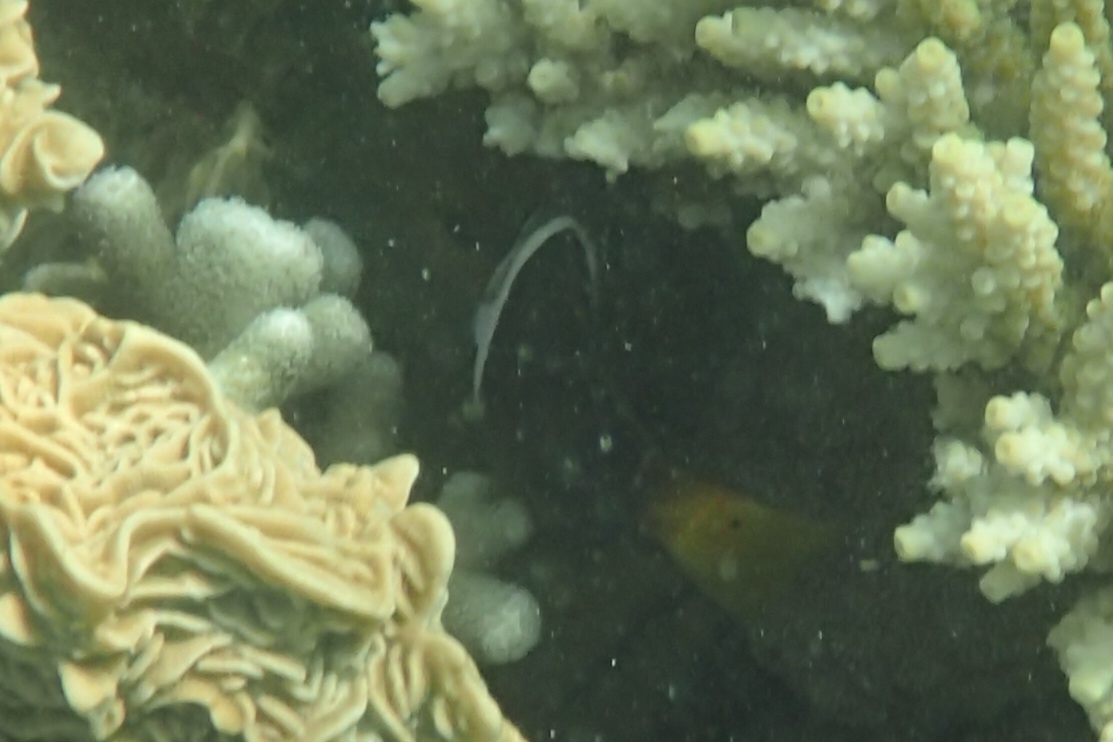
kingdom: Animalia
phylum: Chordata
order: Perciformes
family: Labridae
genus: Hemigymnus
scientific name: Hemigymnus melapterus
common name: Blackeye thicklip
